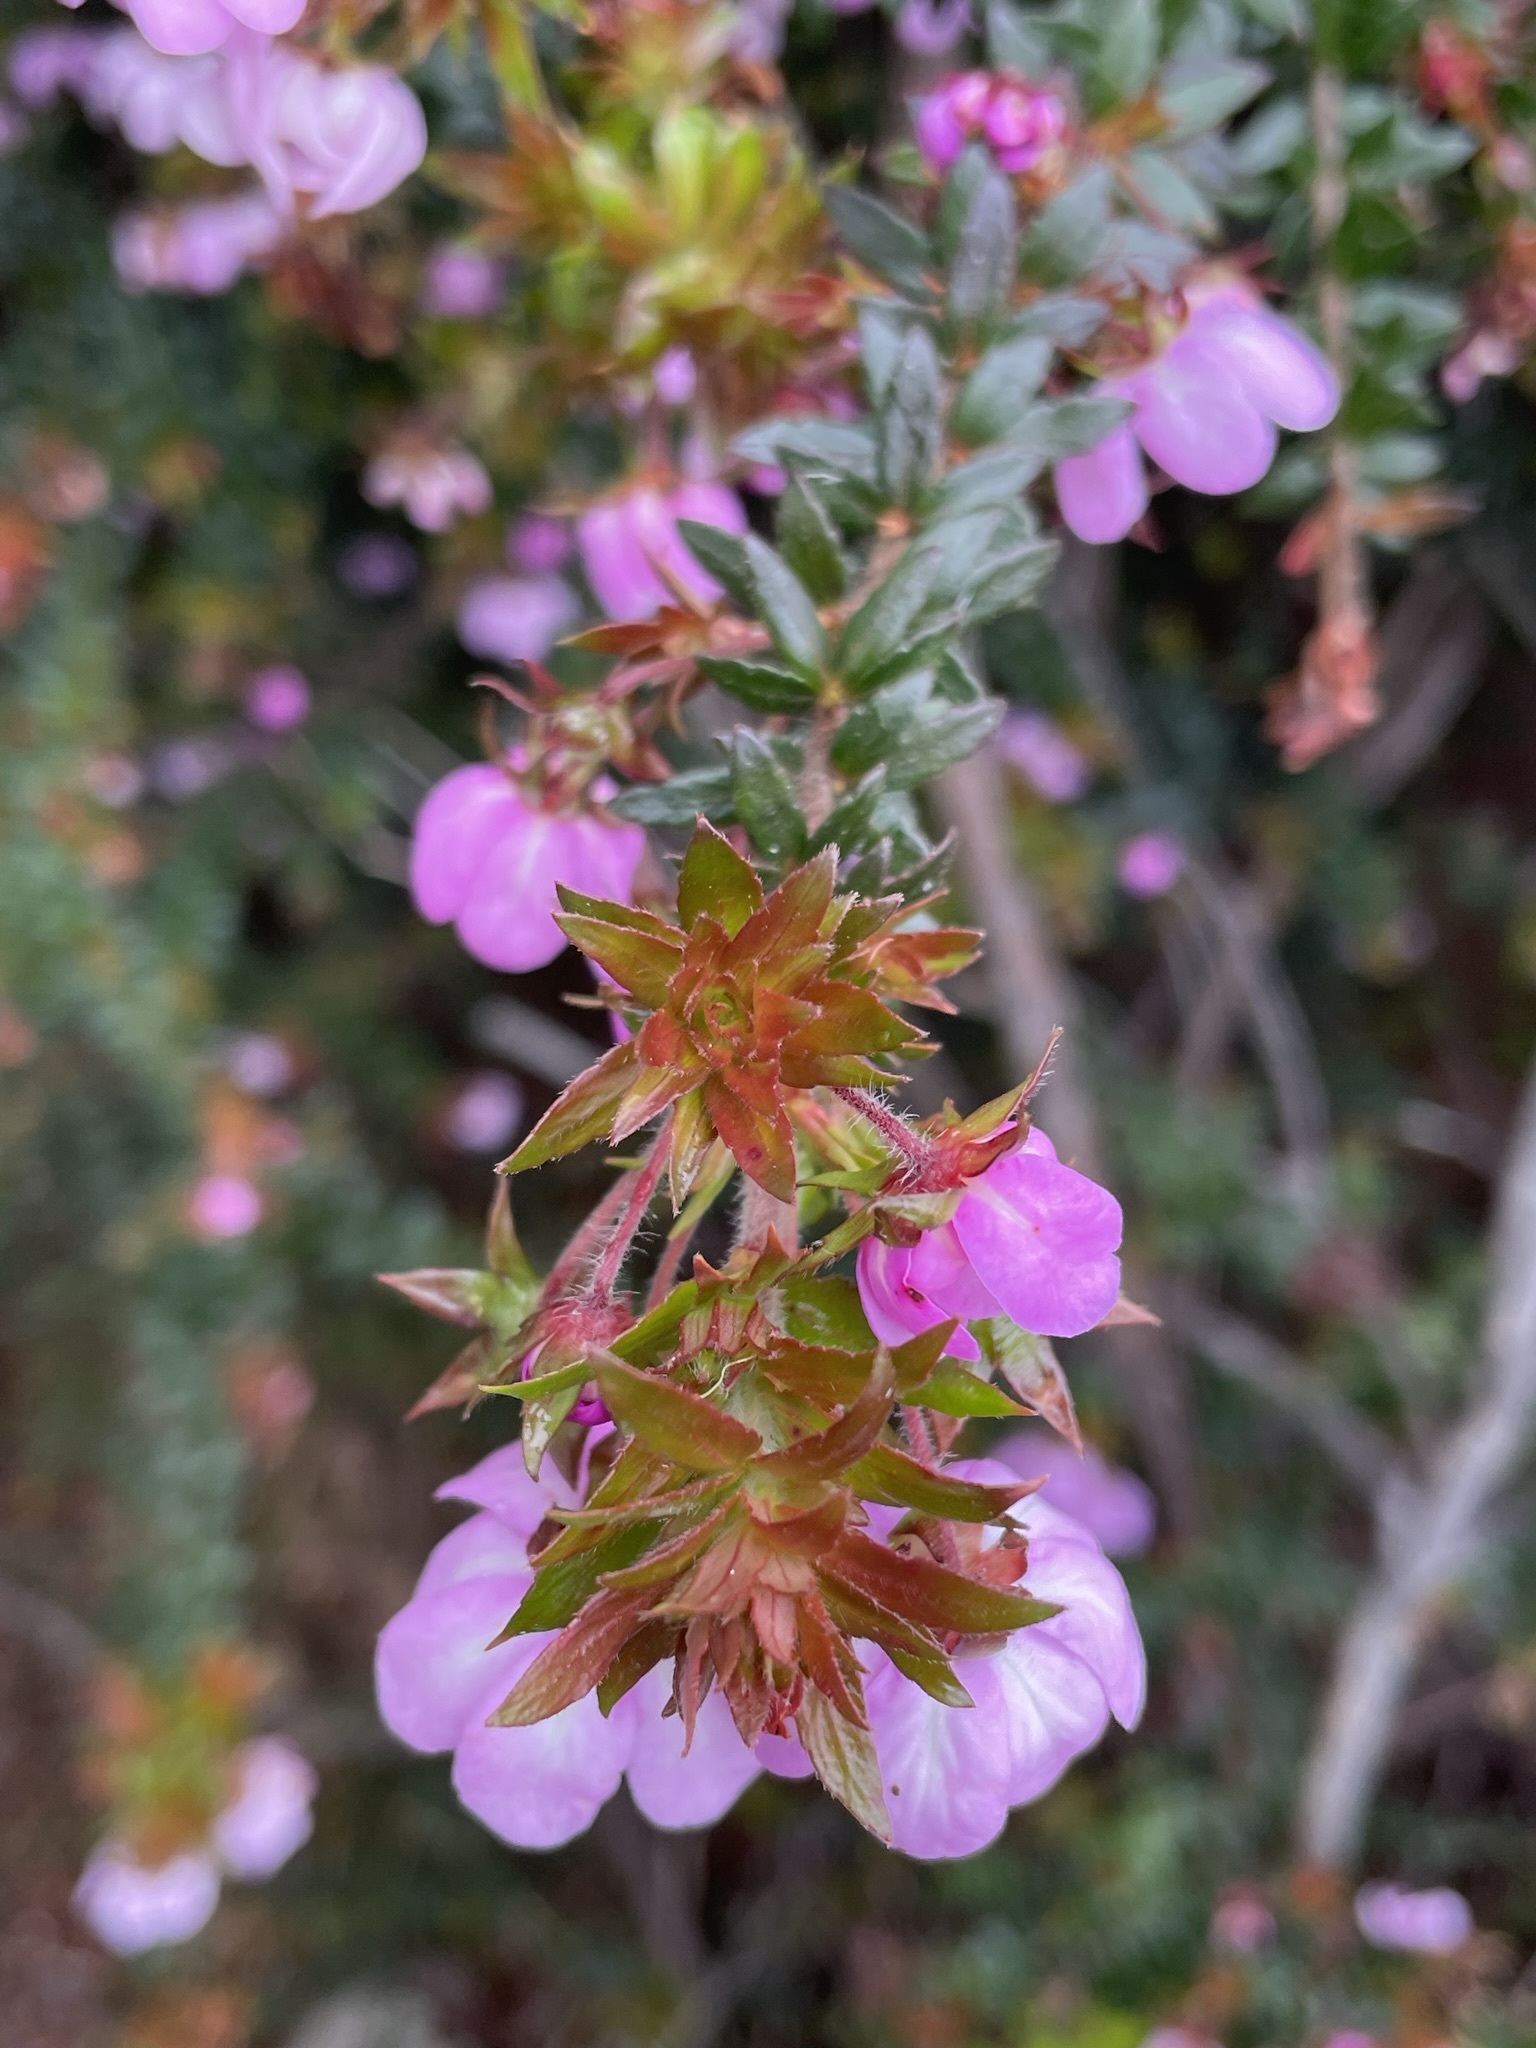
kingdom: Plantae
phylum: Tracheophyta
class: Magnoliopsida
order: Oxalidales
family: Cunoniaceae
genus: Bauera
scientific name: Bauera rubioides
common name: River-rose
